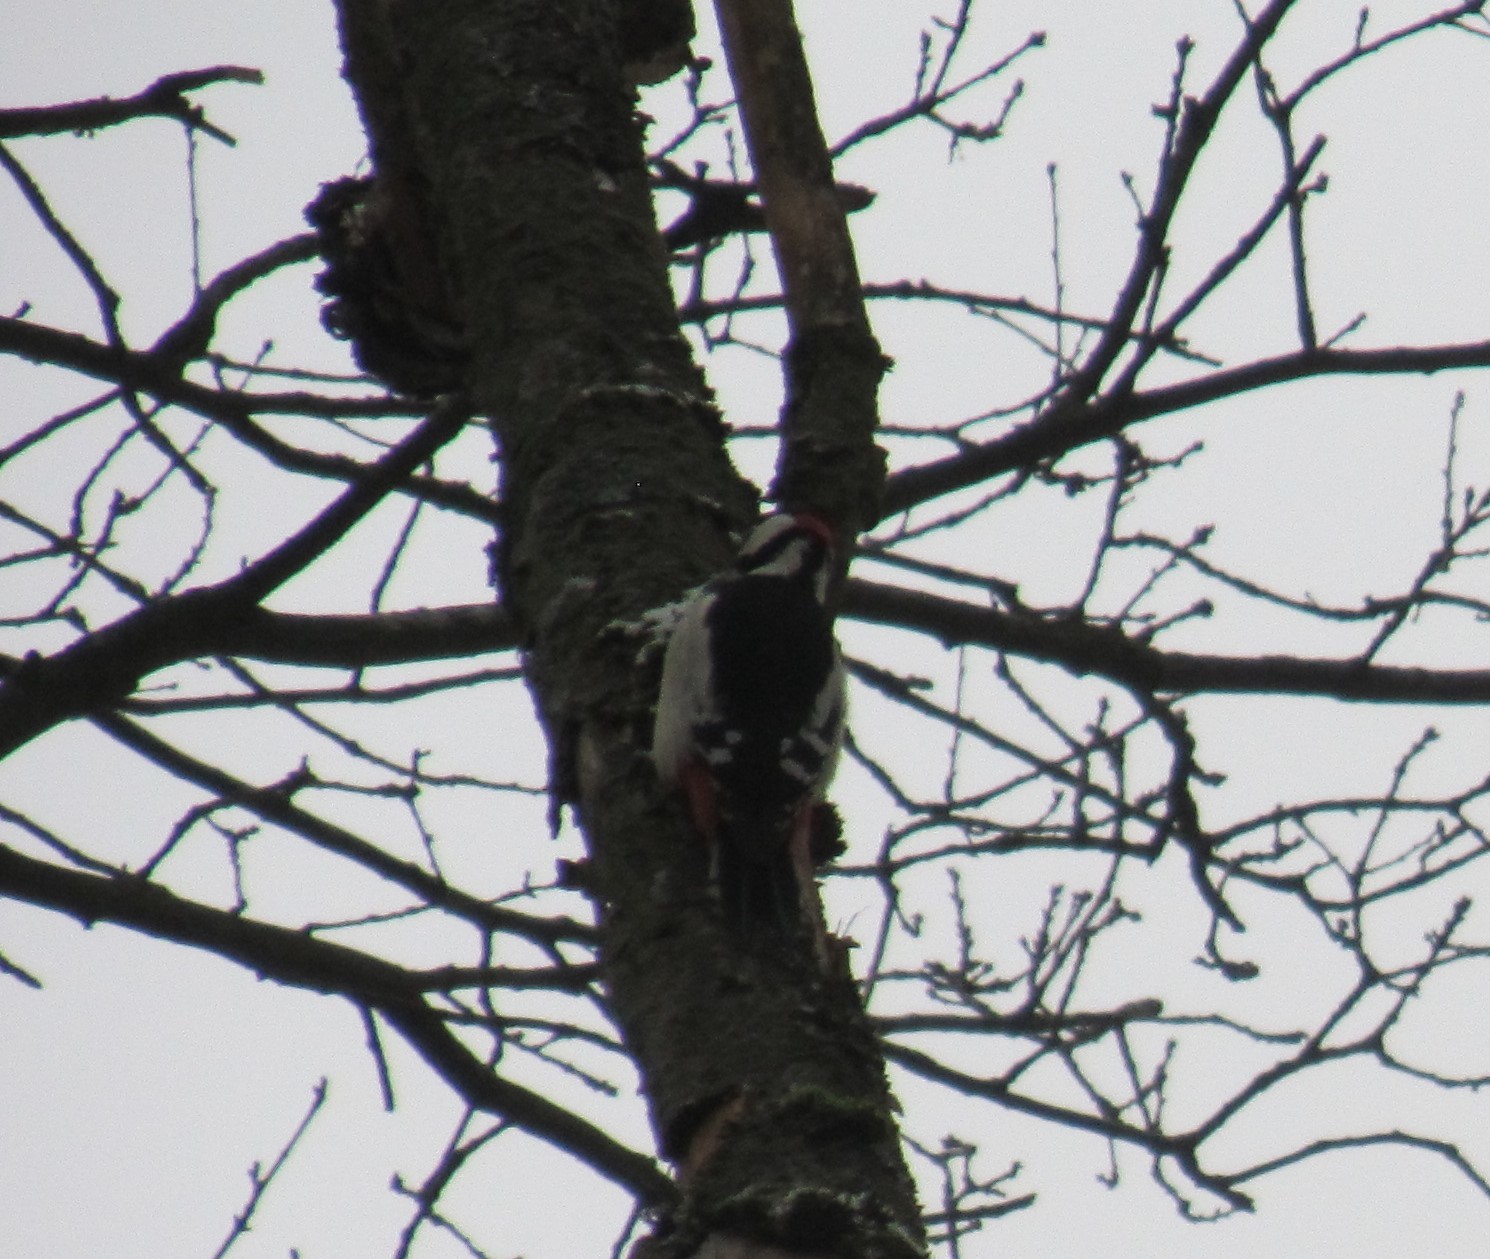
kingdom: Animalia
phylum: Chordata
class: Aves
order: Piciformes
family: Picidae
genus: Dendrocopos
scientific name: Dendrocopos major
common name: Great spotted woodpecker
